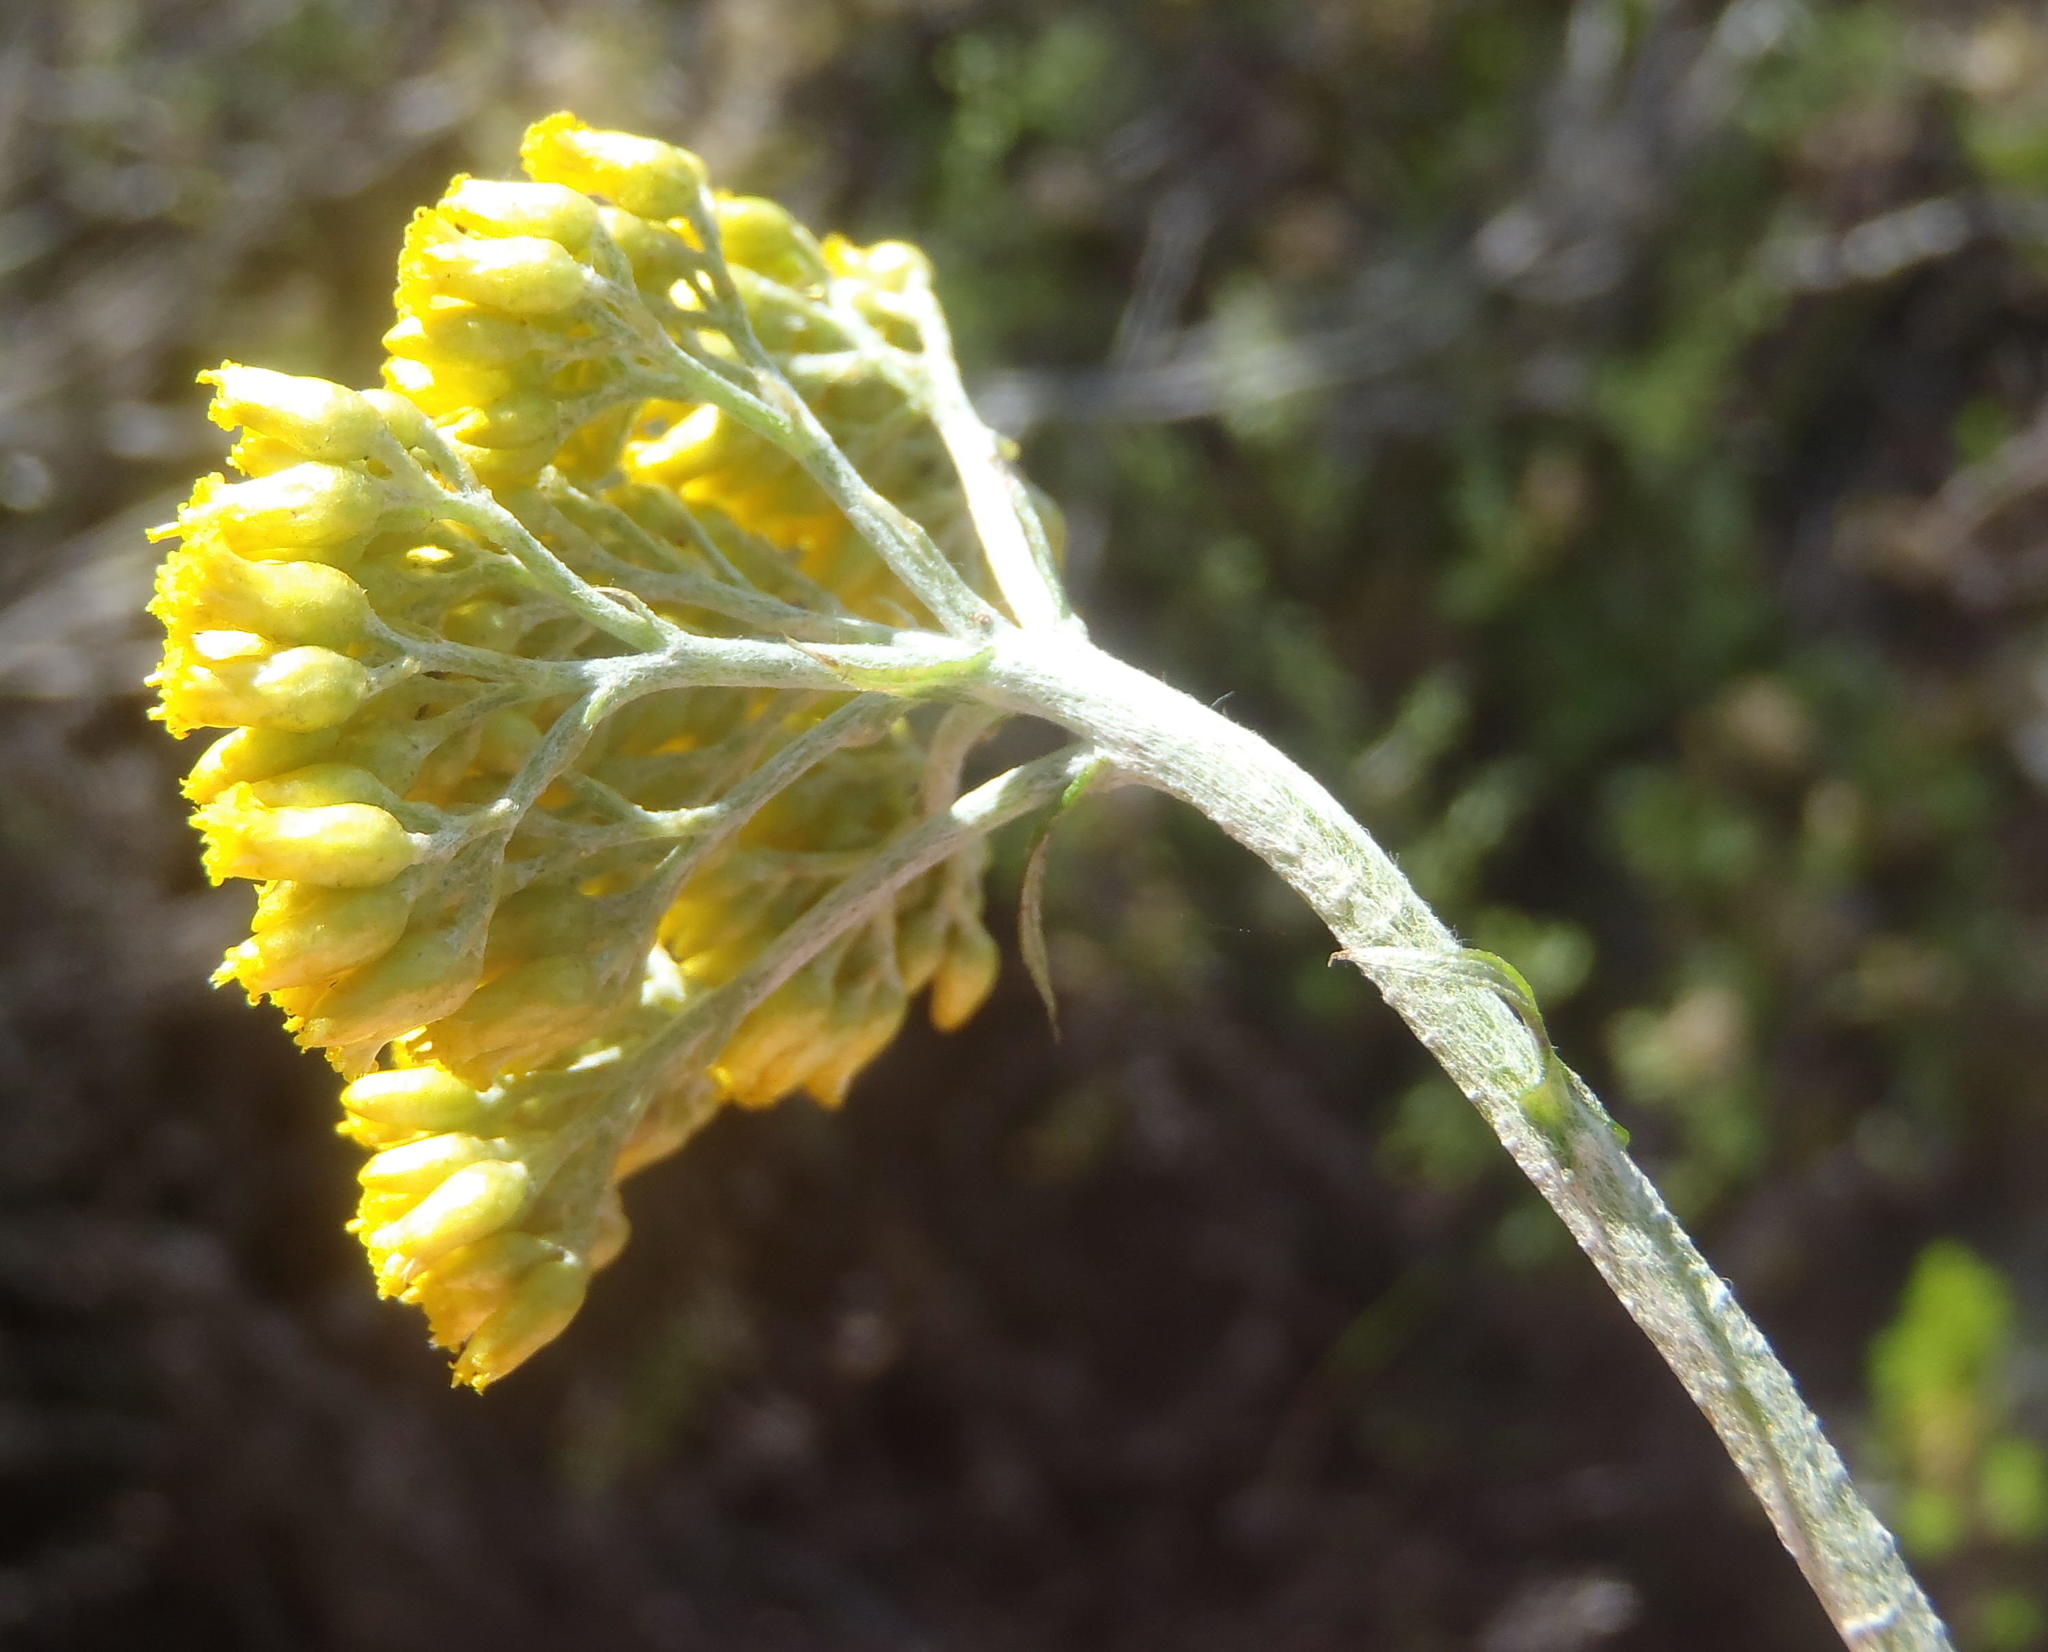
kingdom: Plantae
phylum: Tracheophyta
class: Magnoliopsida
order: Asterales
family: Asteraceae
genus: Helichrysum
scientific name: Helichrysum cymosum
